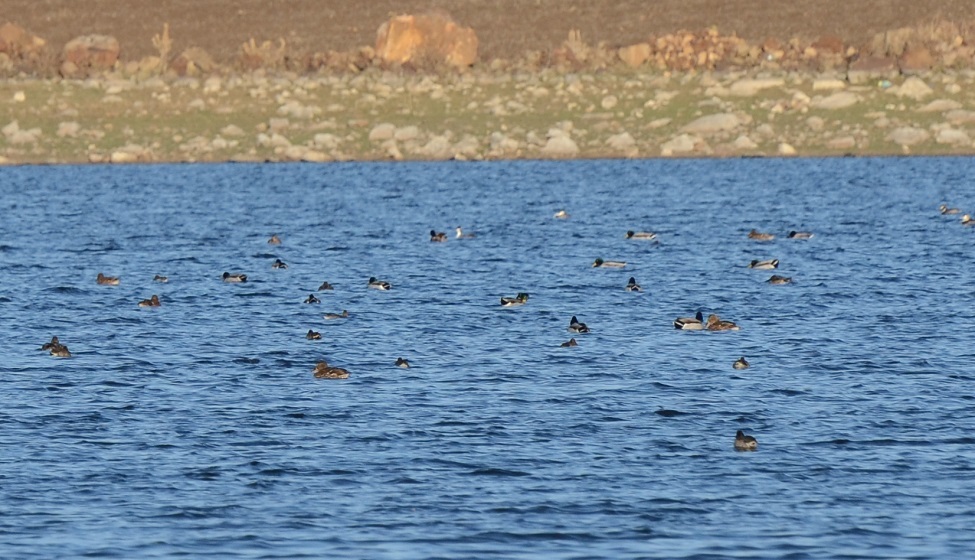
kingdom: Animalia
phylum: Chordata
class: Aves
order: Anseriformes
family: Anatidae
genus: Anas
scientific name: Anas platyrhynchos
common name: Mallard
